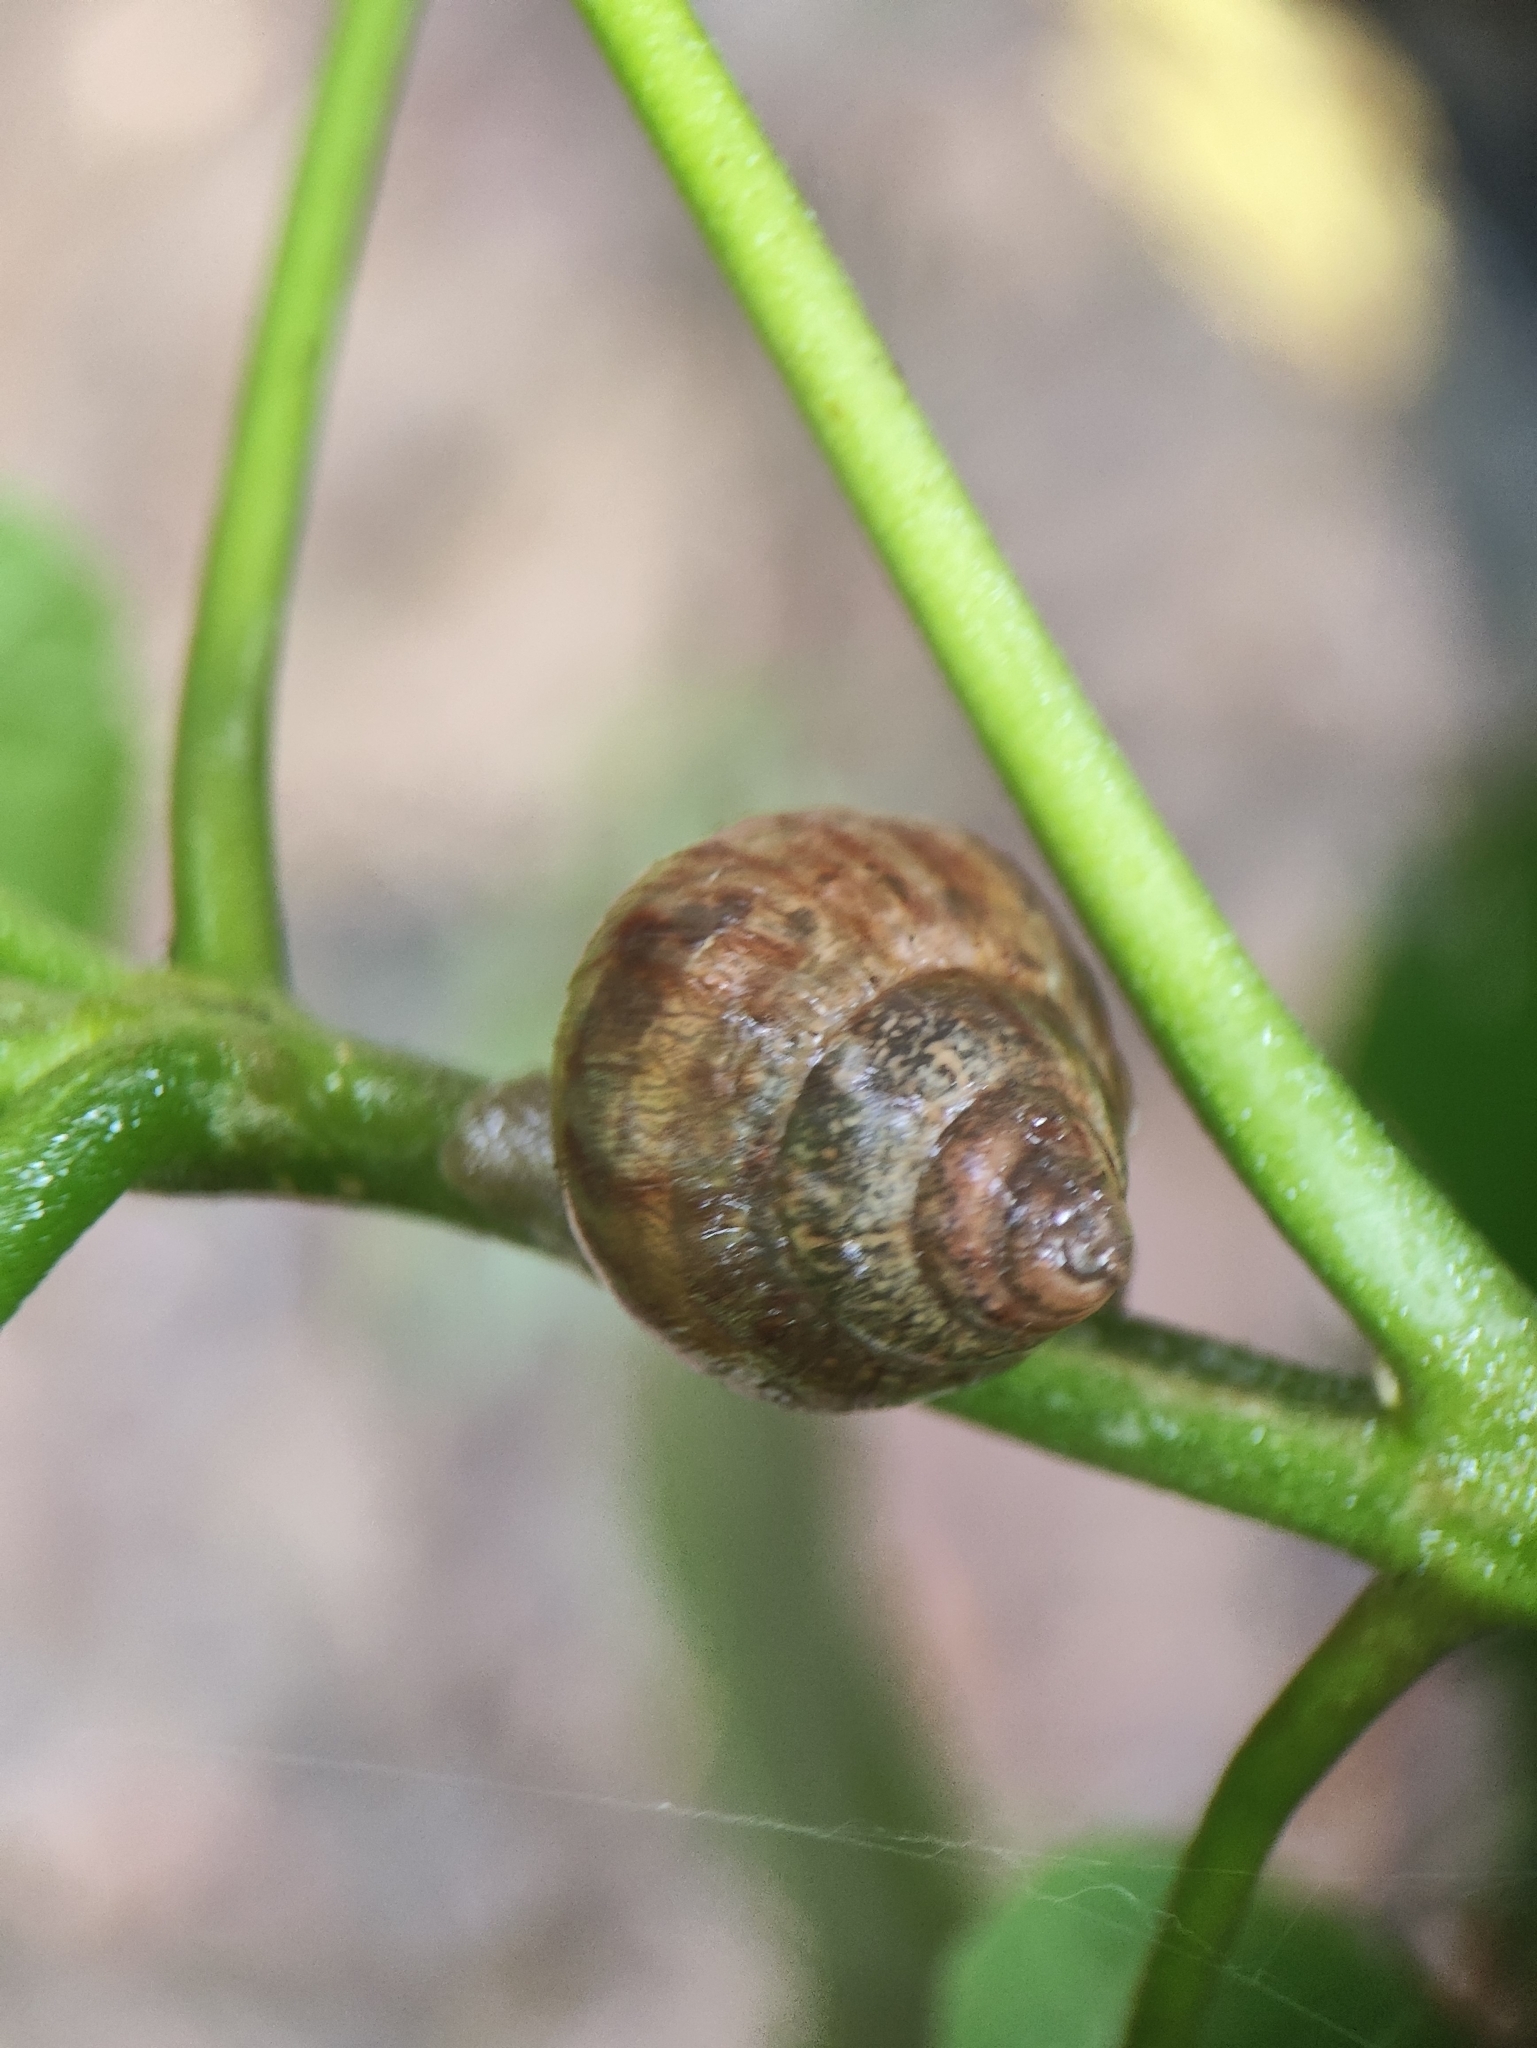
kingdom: Animalia
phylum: Mollusca
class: Gastropoda
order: Stylommatophora
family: Achatinidae
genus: Lissachatina
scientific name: Lissachatina fulica
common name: Giant african snail
